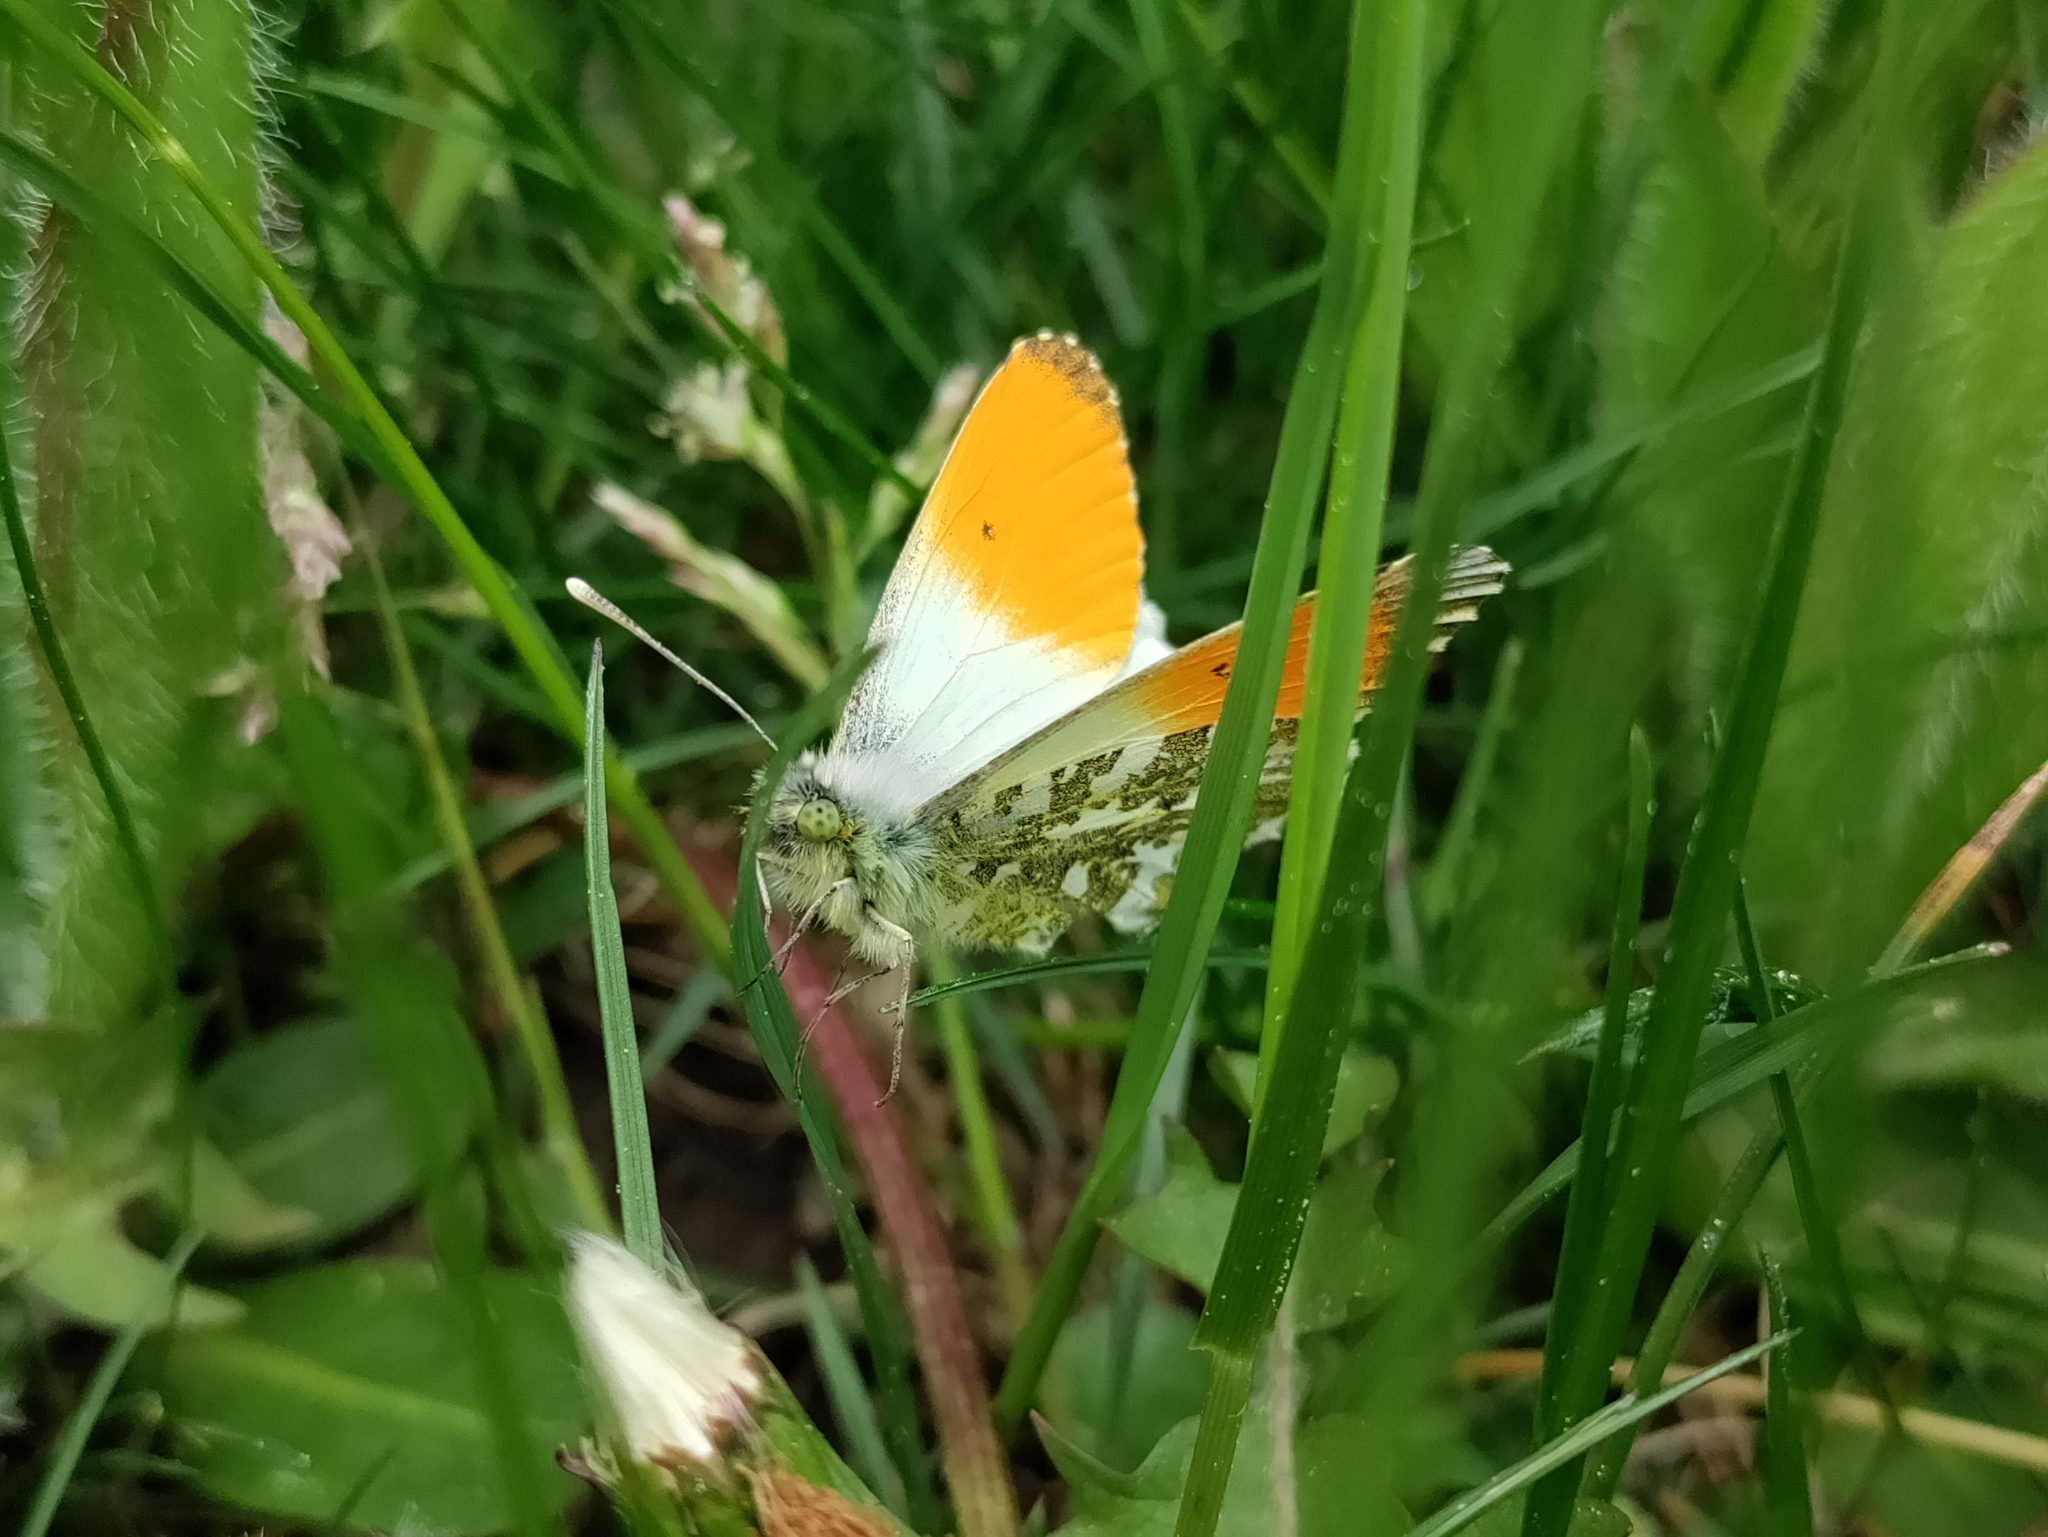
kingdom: Animalia
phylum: Arthropoda
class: Insecta
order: Lepidoptera
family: Pieridae
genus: Anthocharis
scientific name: Anthocharis cardamines
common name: Orange-tip
